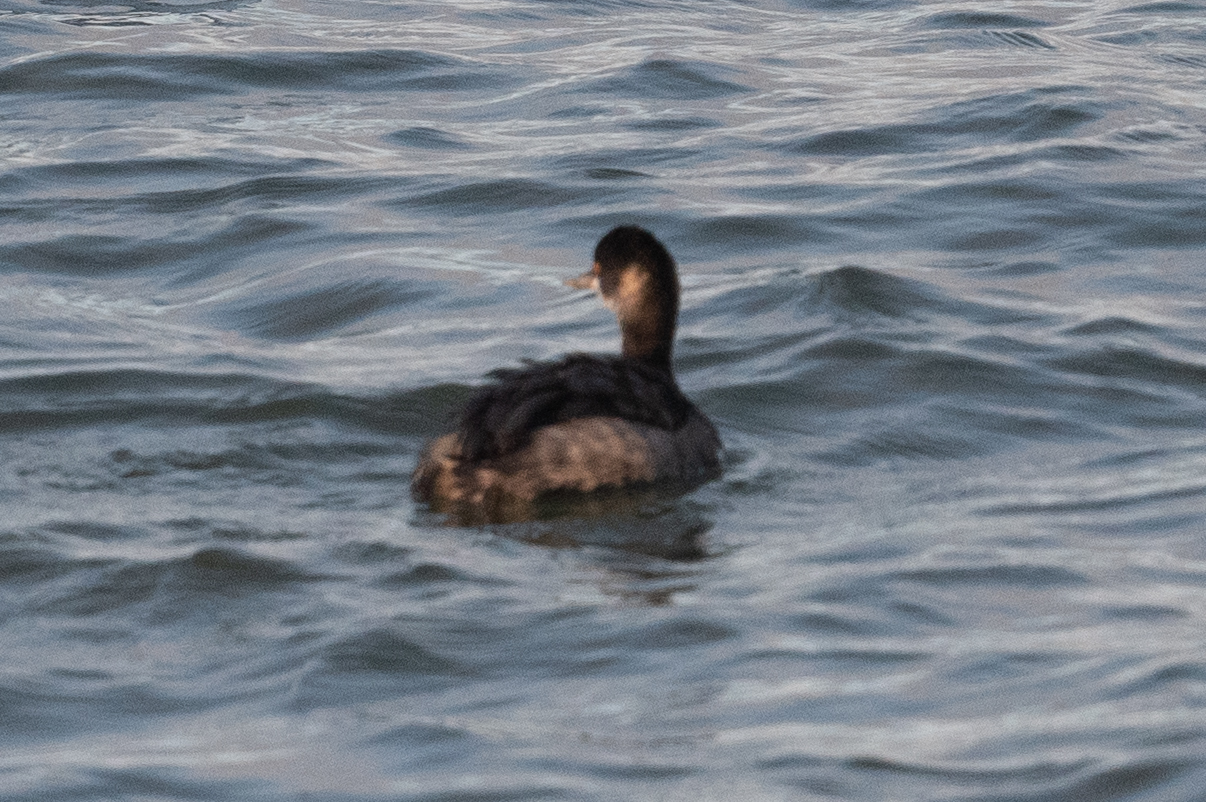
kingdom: Animalia
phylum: Chordata
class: Aves
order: Podicipediformes
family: Podicipedidae
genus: Podiceps
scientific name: Podiceps nigricollis
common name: Black-necked grebe
